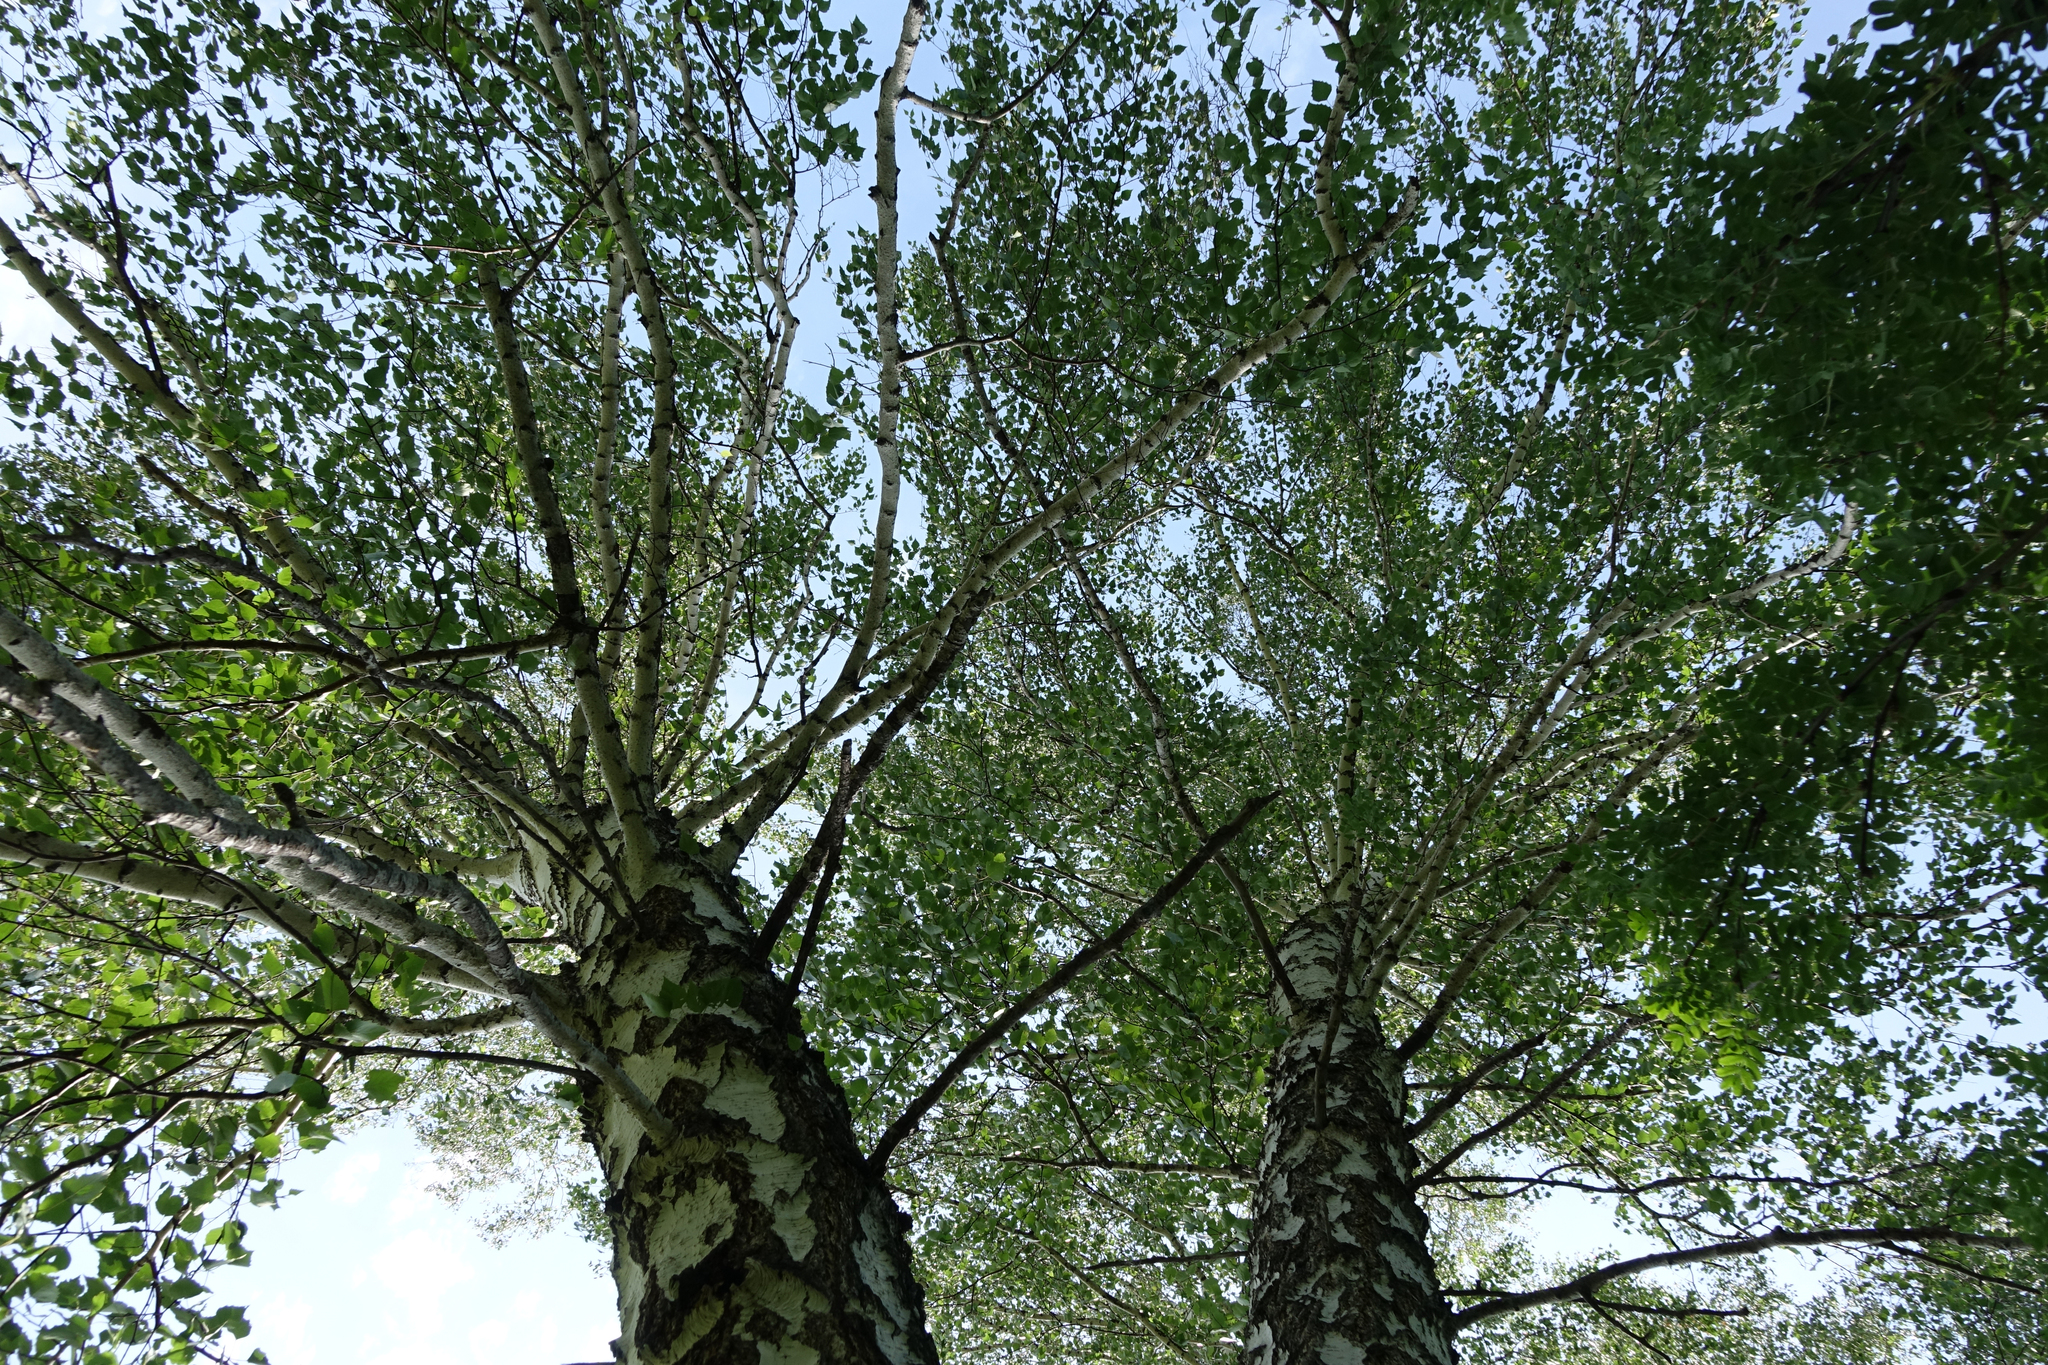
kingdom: Plantae
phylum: Tracheophyta
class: Magnoliopsida
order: Fagales
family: Betulaceae
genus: Betula
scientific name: Betula pendula
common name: Silver birch
